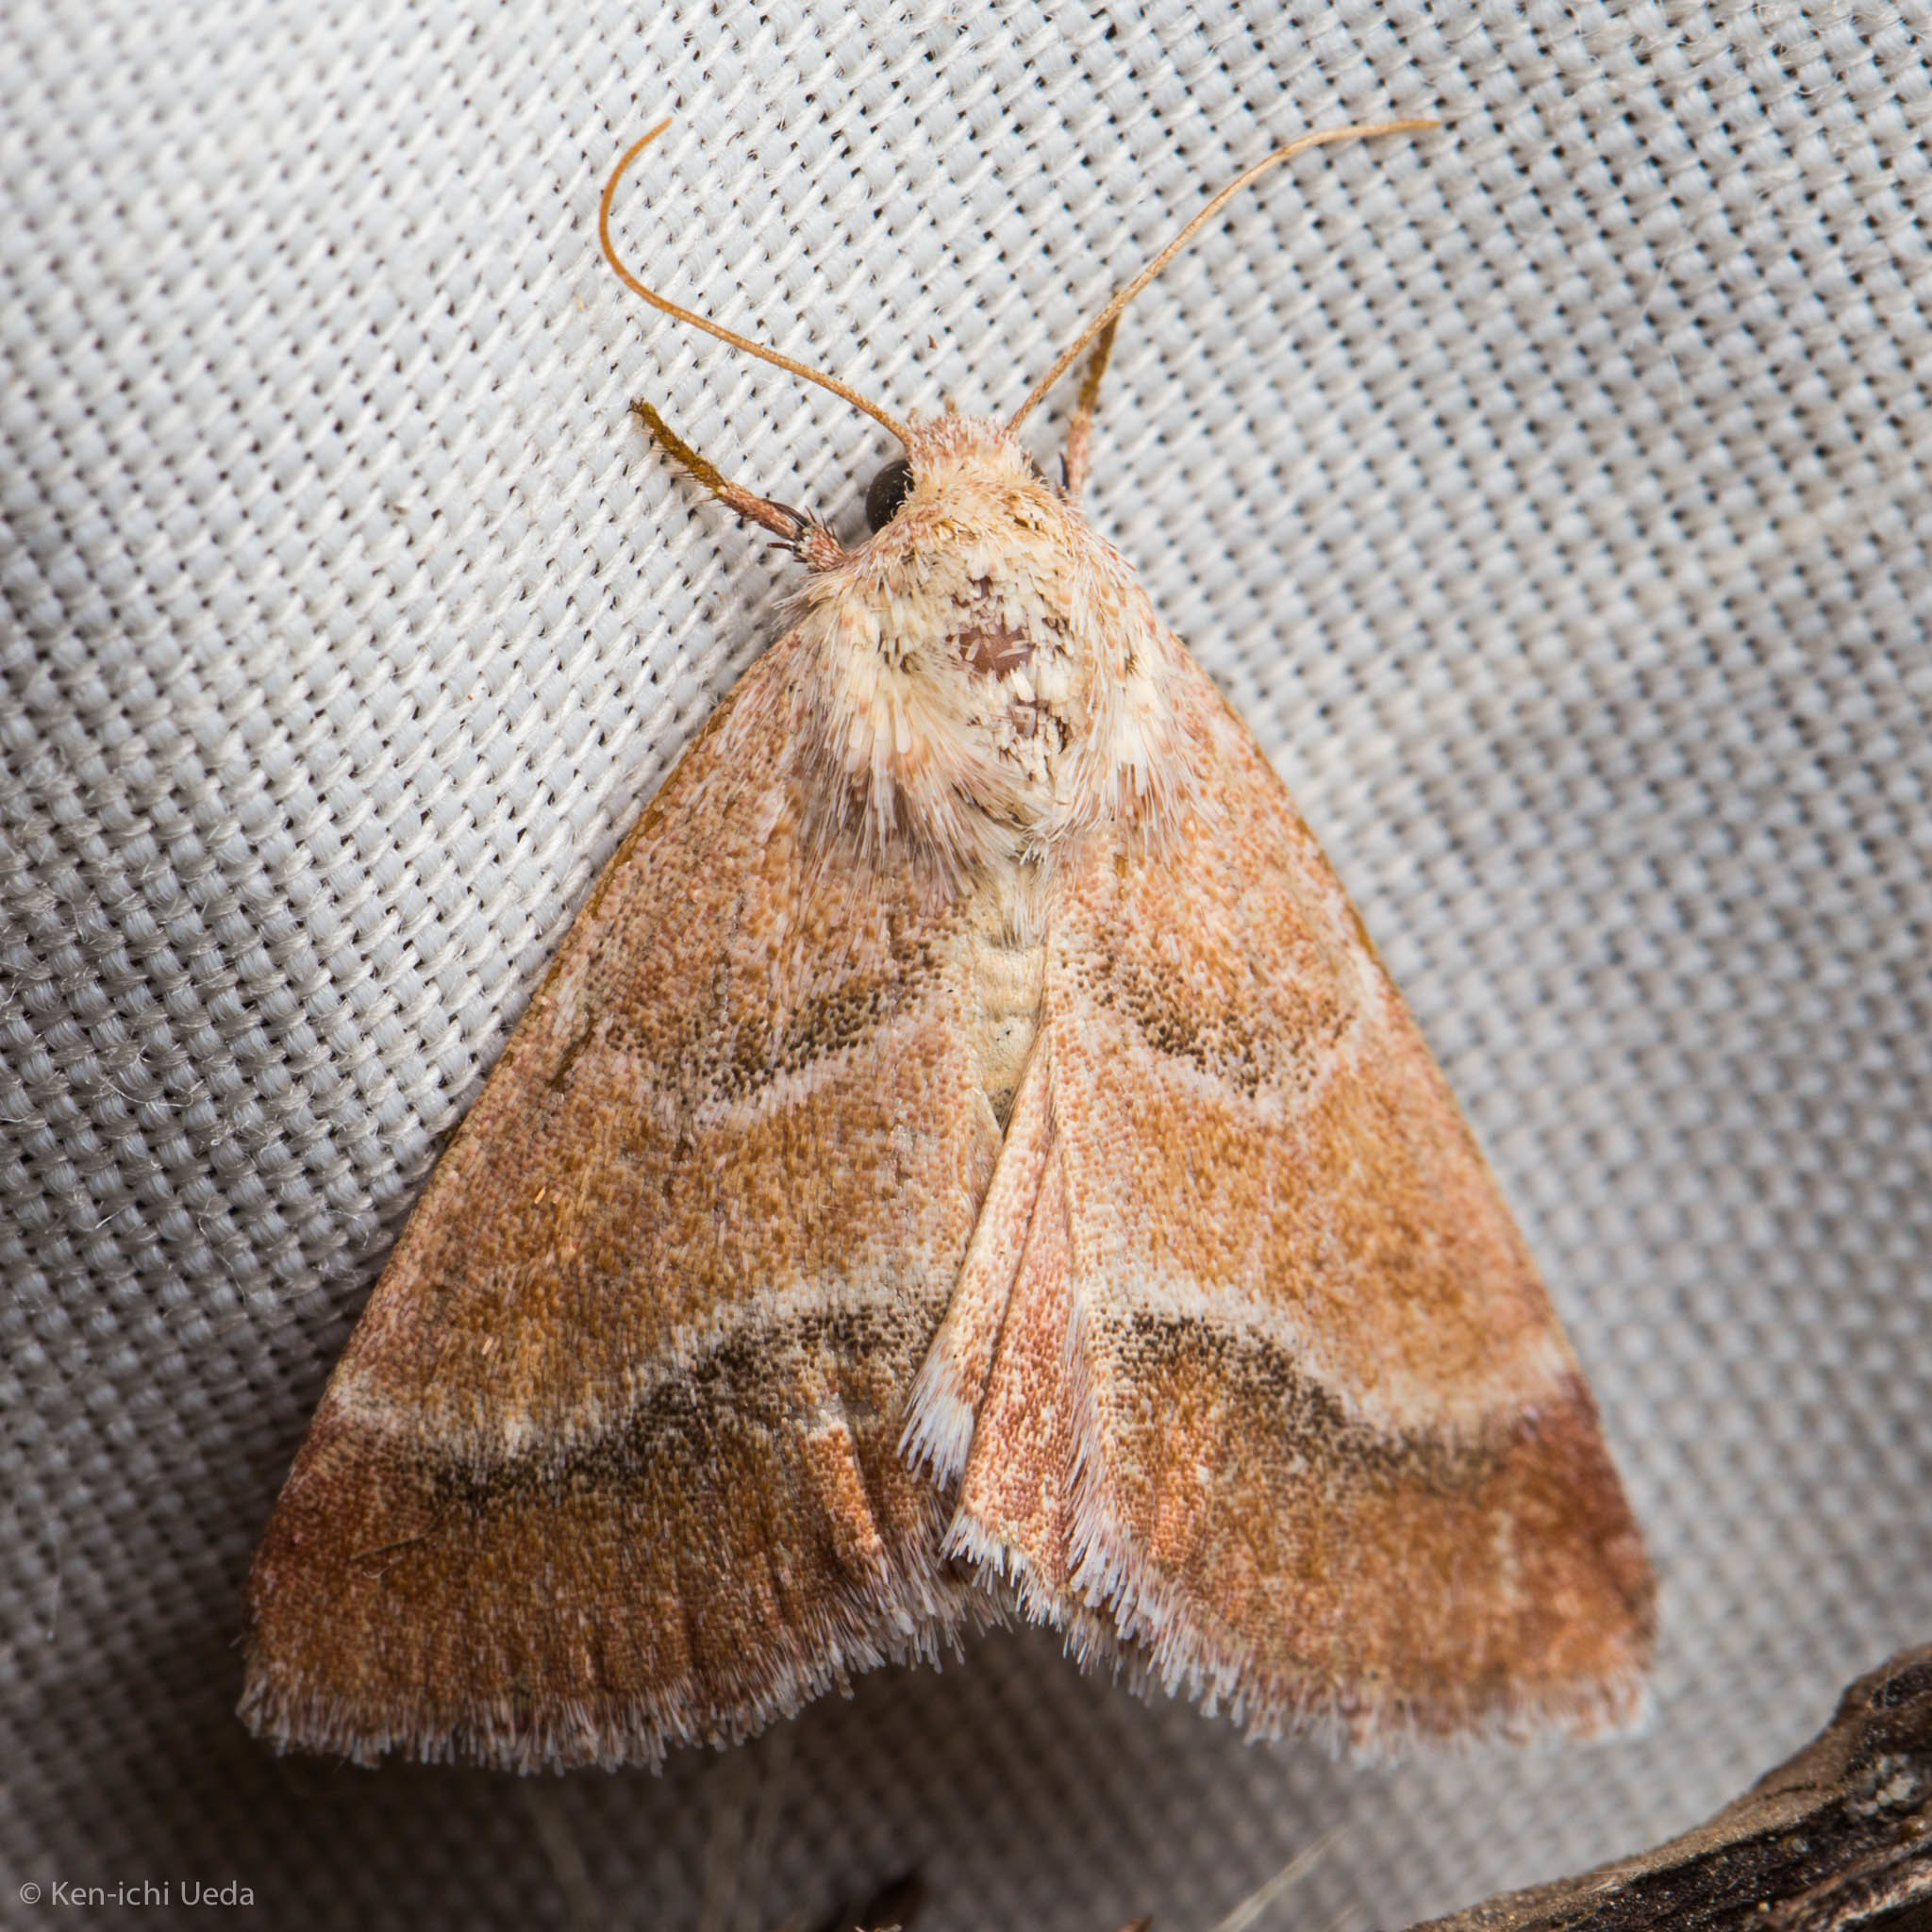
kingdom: Animalia
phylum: Arthropoda
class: Insecta
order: Lepidoptera
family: Noctuidae
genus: Schinia
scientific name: Schinia buta
